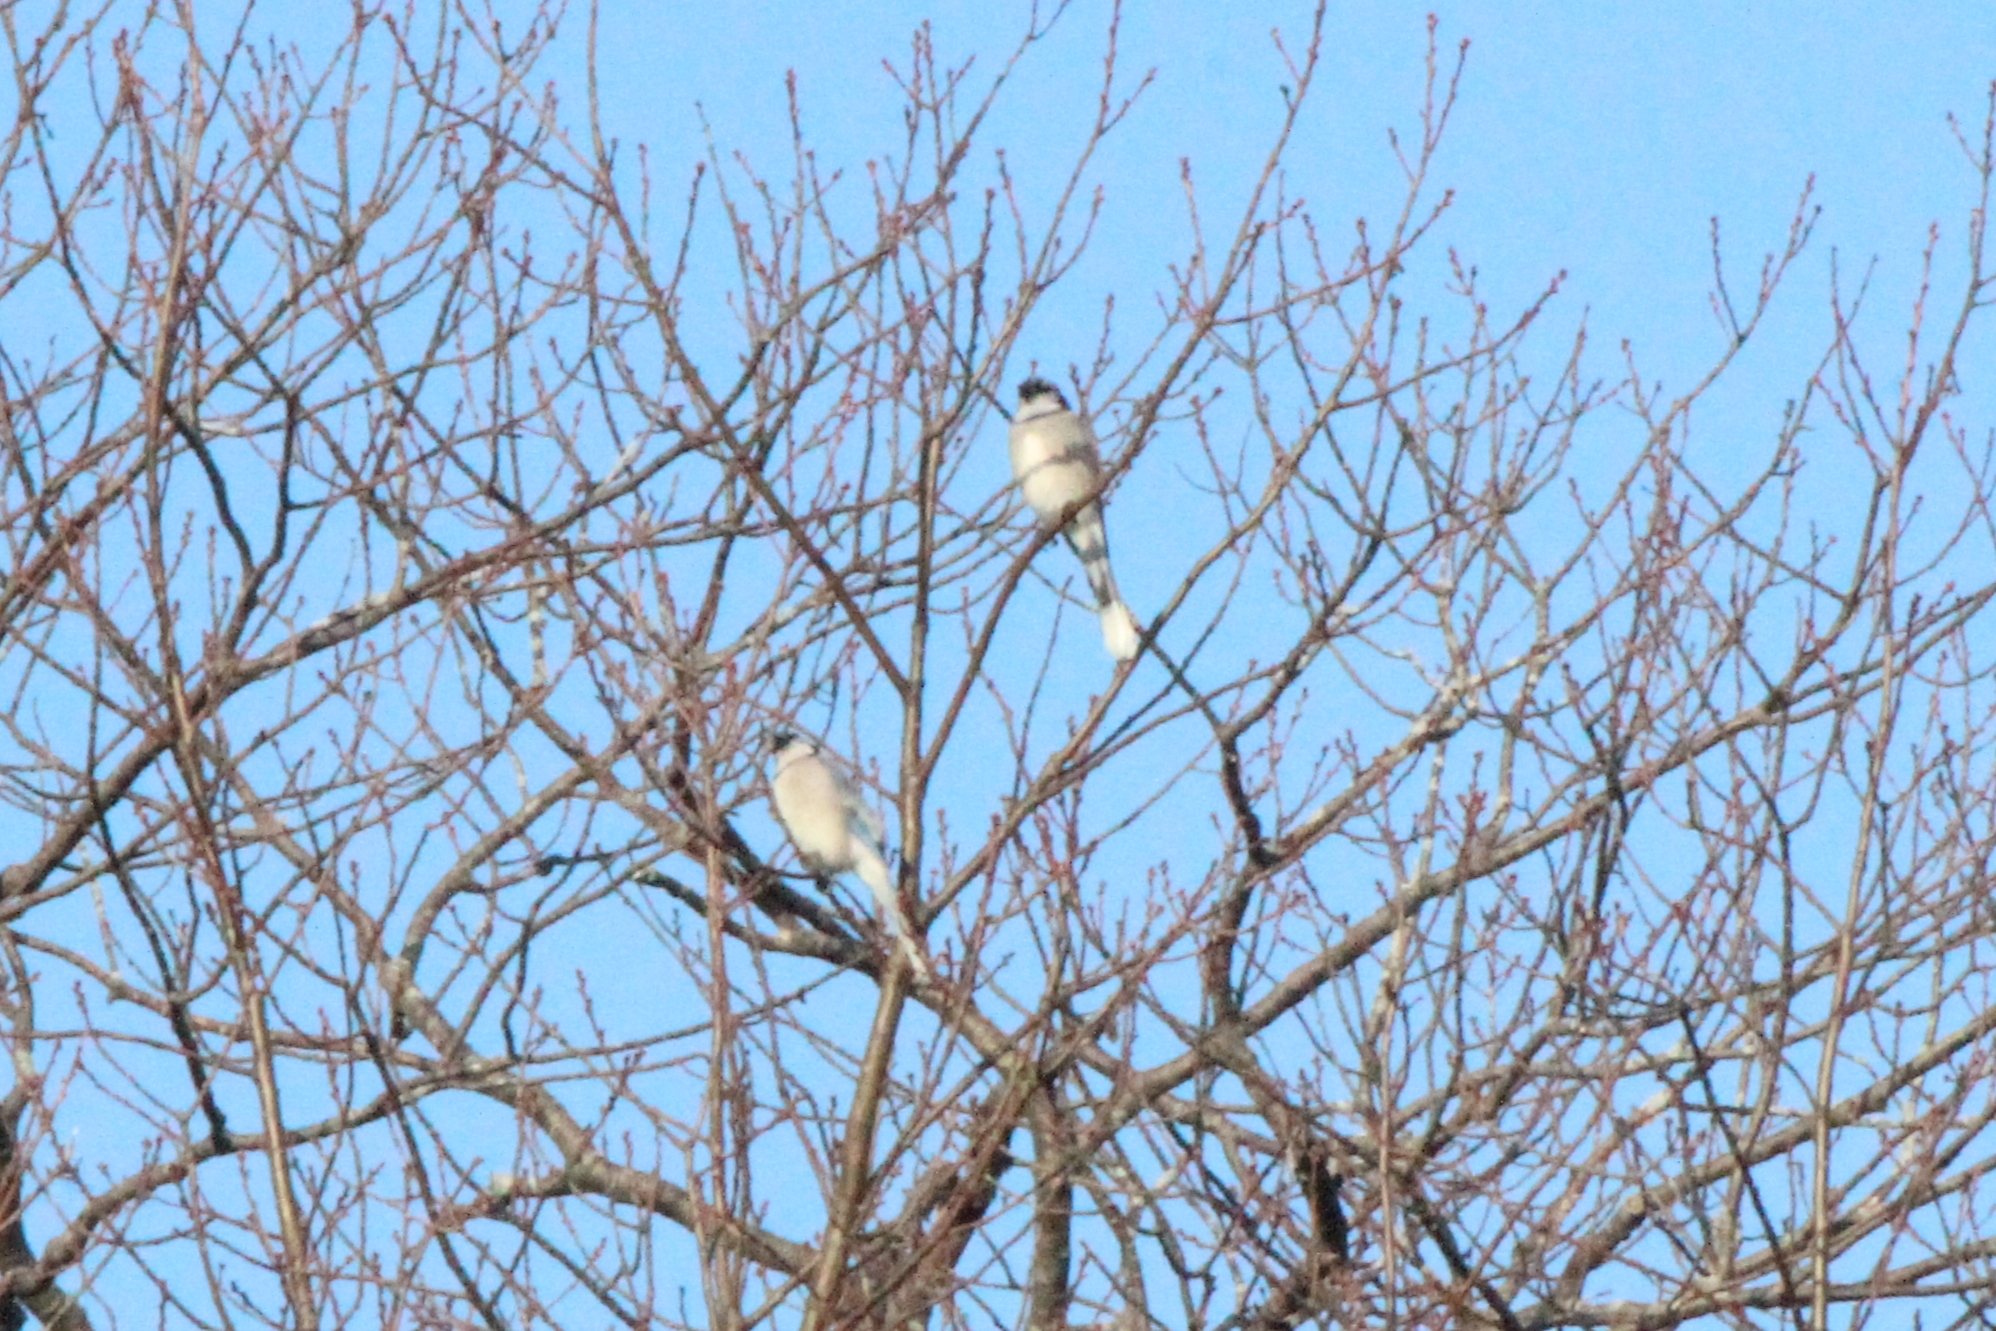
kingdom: Animalia
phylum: Chordata
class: Aves
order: Passeriformes
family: Corvidae
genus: Cyanocitta
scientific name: Cyanocitta cristata
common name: Blue jay
